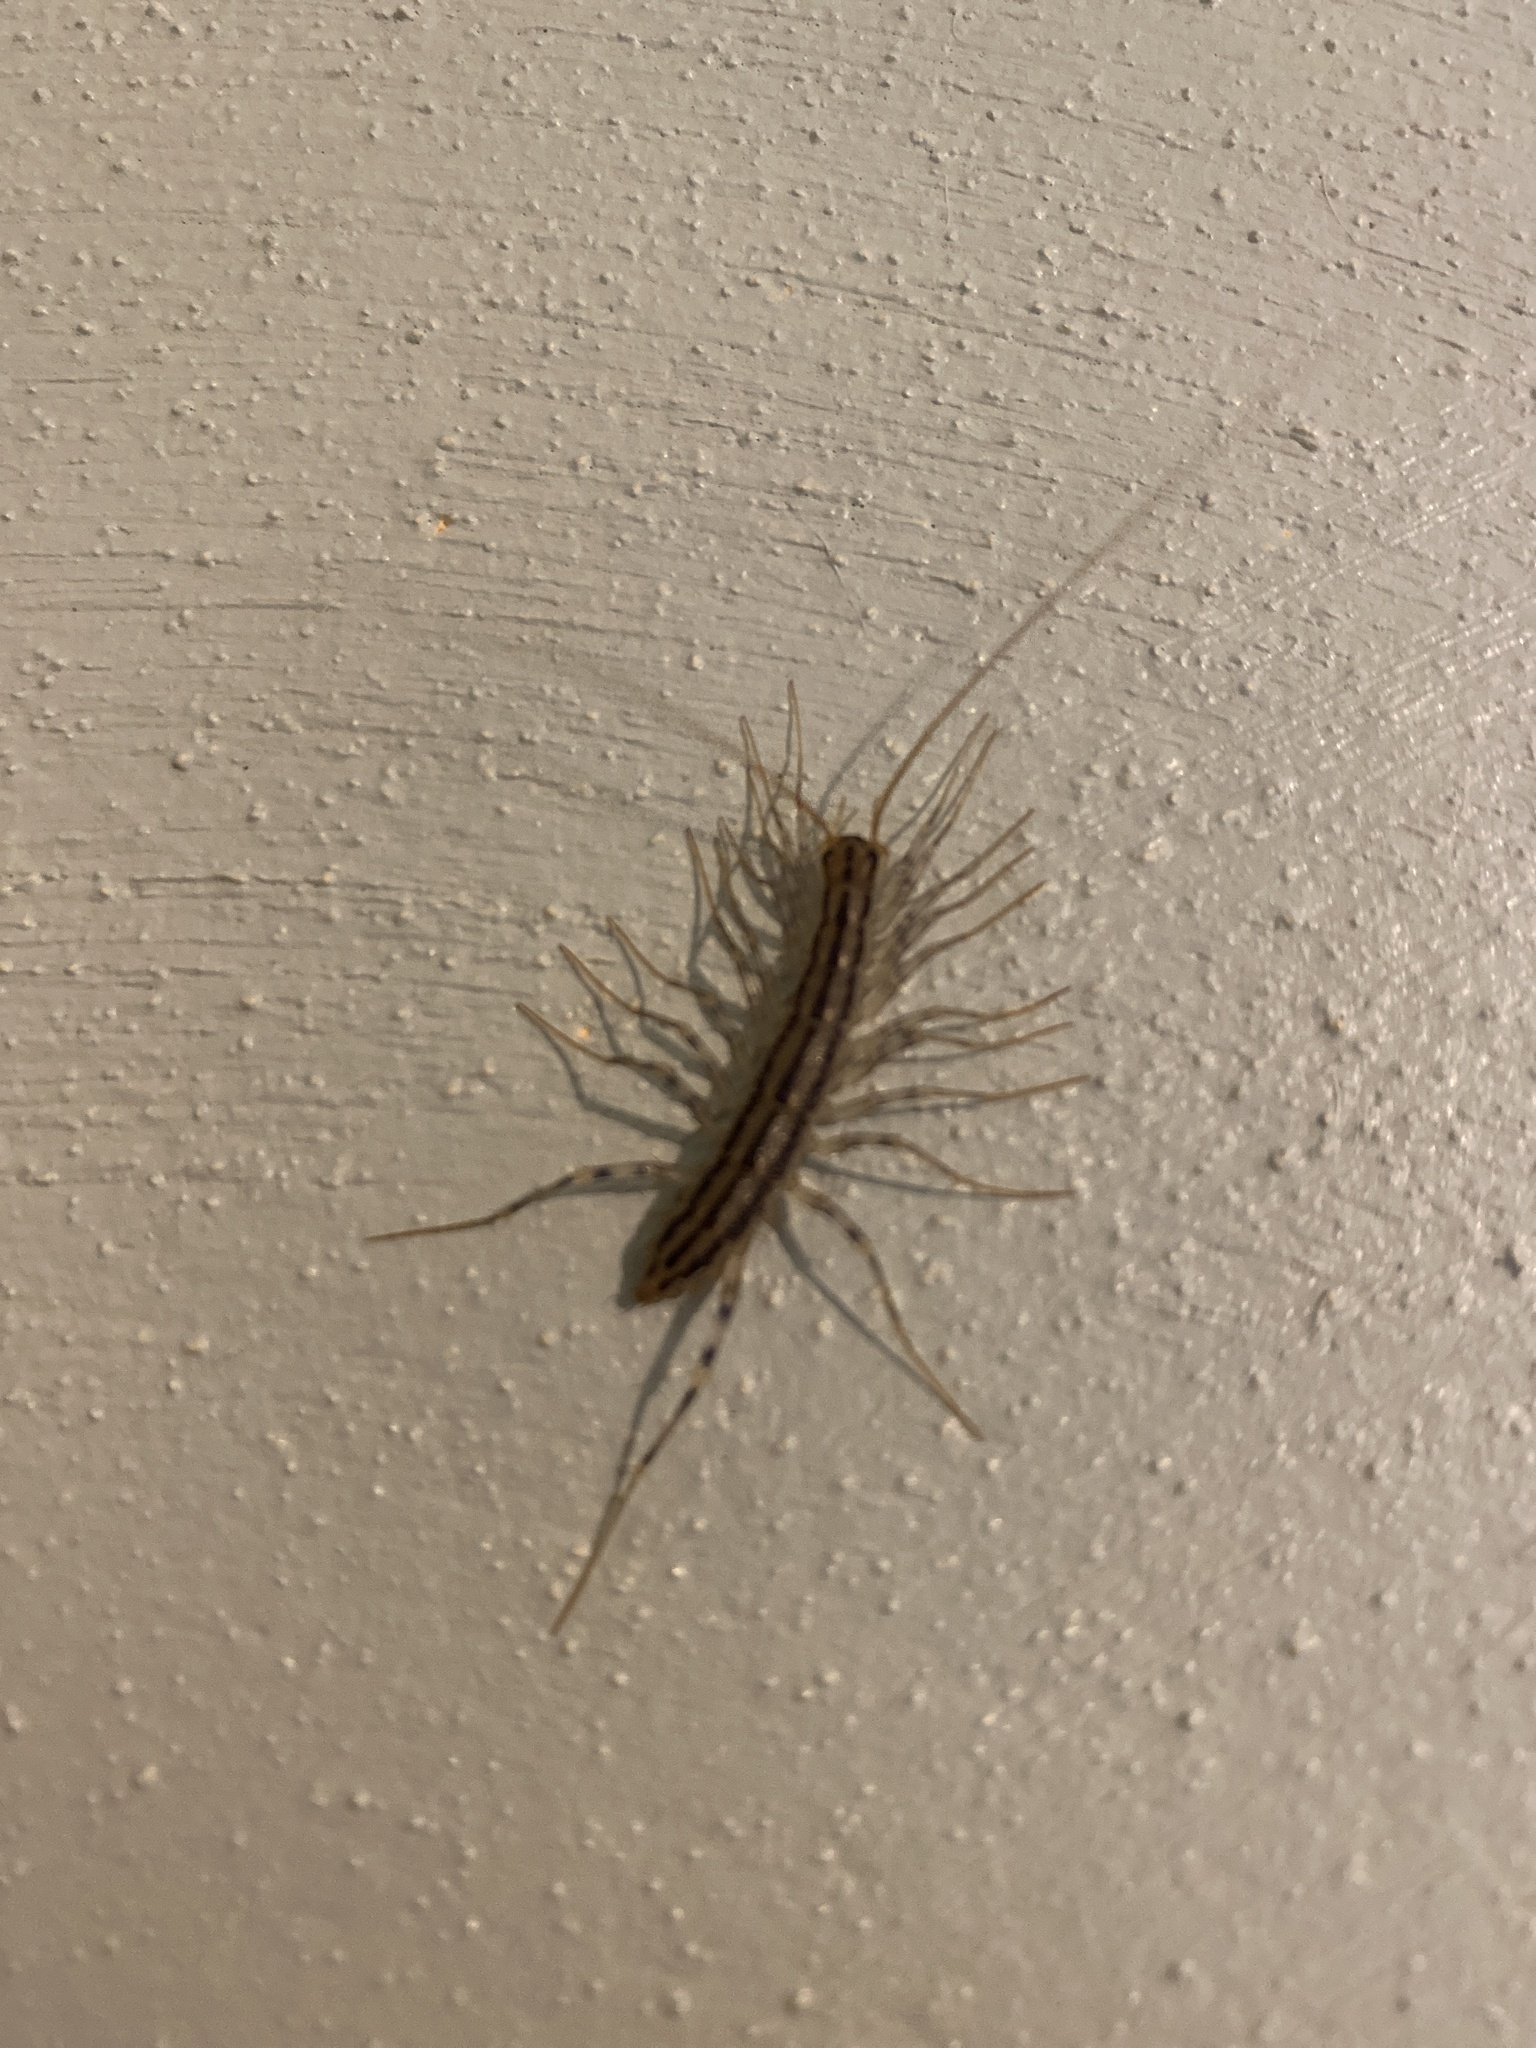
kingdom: Animalia
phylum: Arthropoda
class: Chilopoda
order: Scutigeromorpha
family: Scutigeridae
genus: Scutigera
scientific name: Scutigera coleoptrata
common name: House centipede
